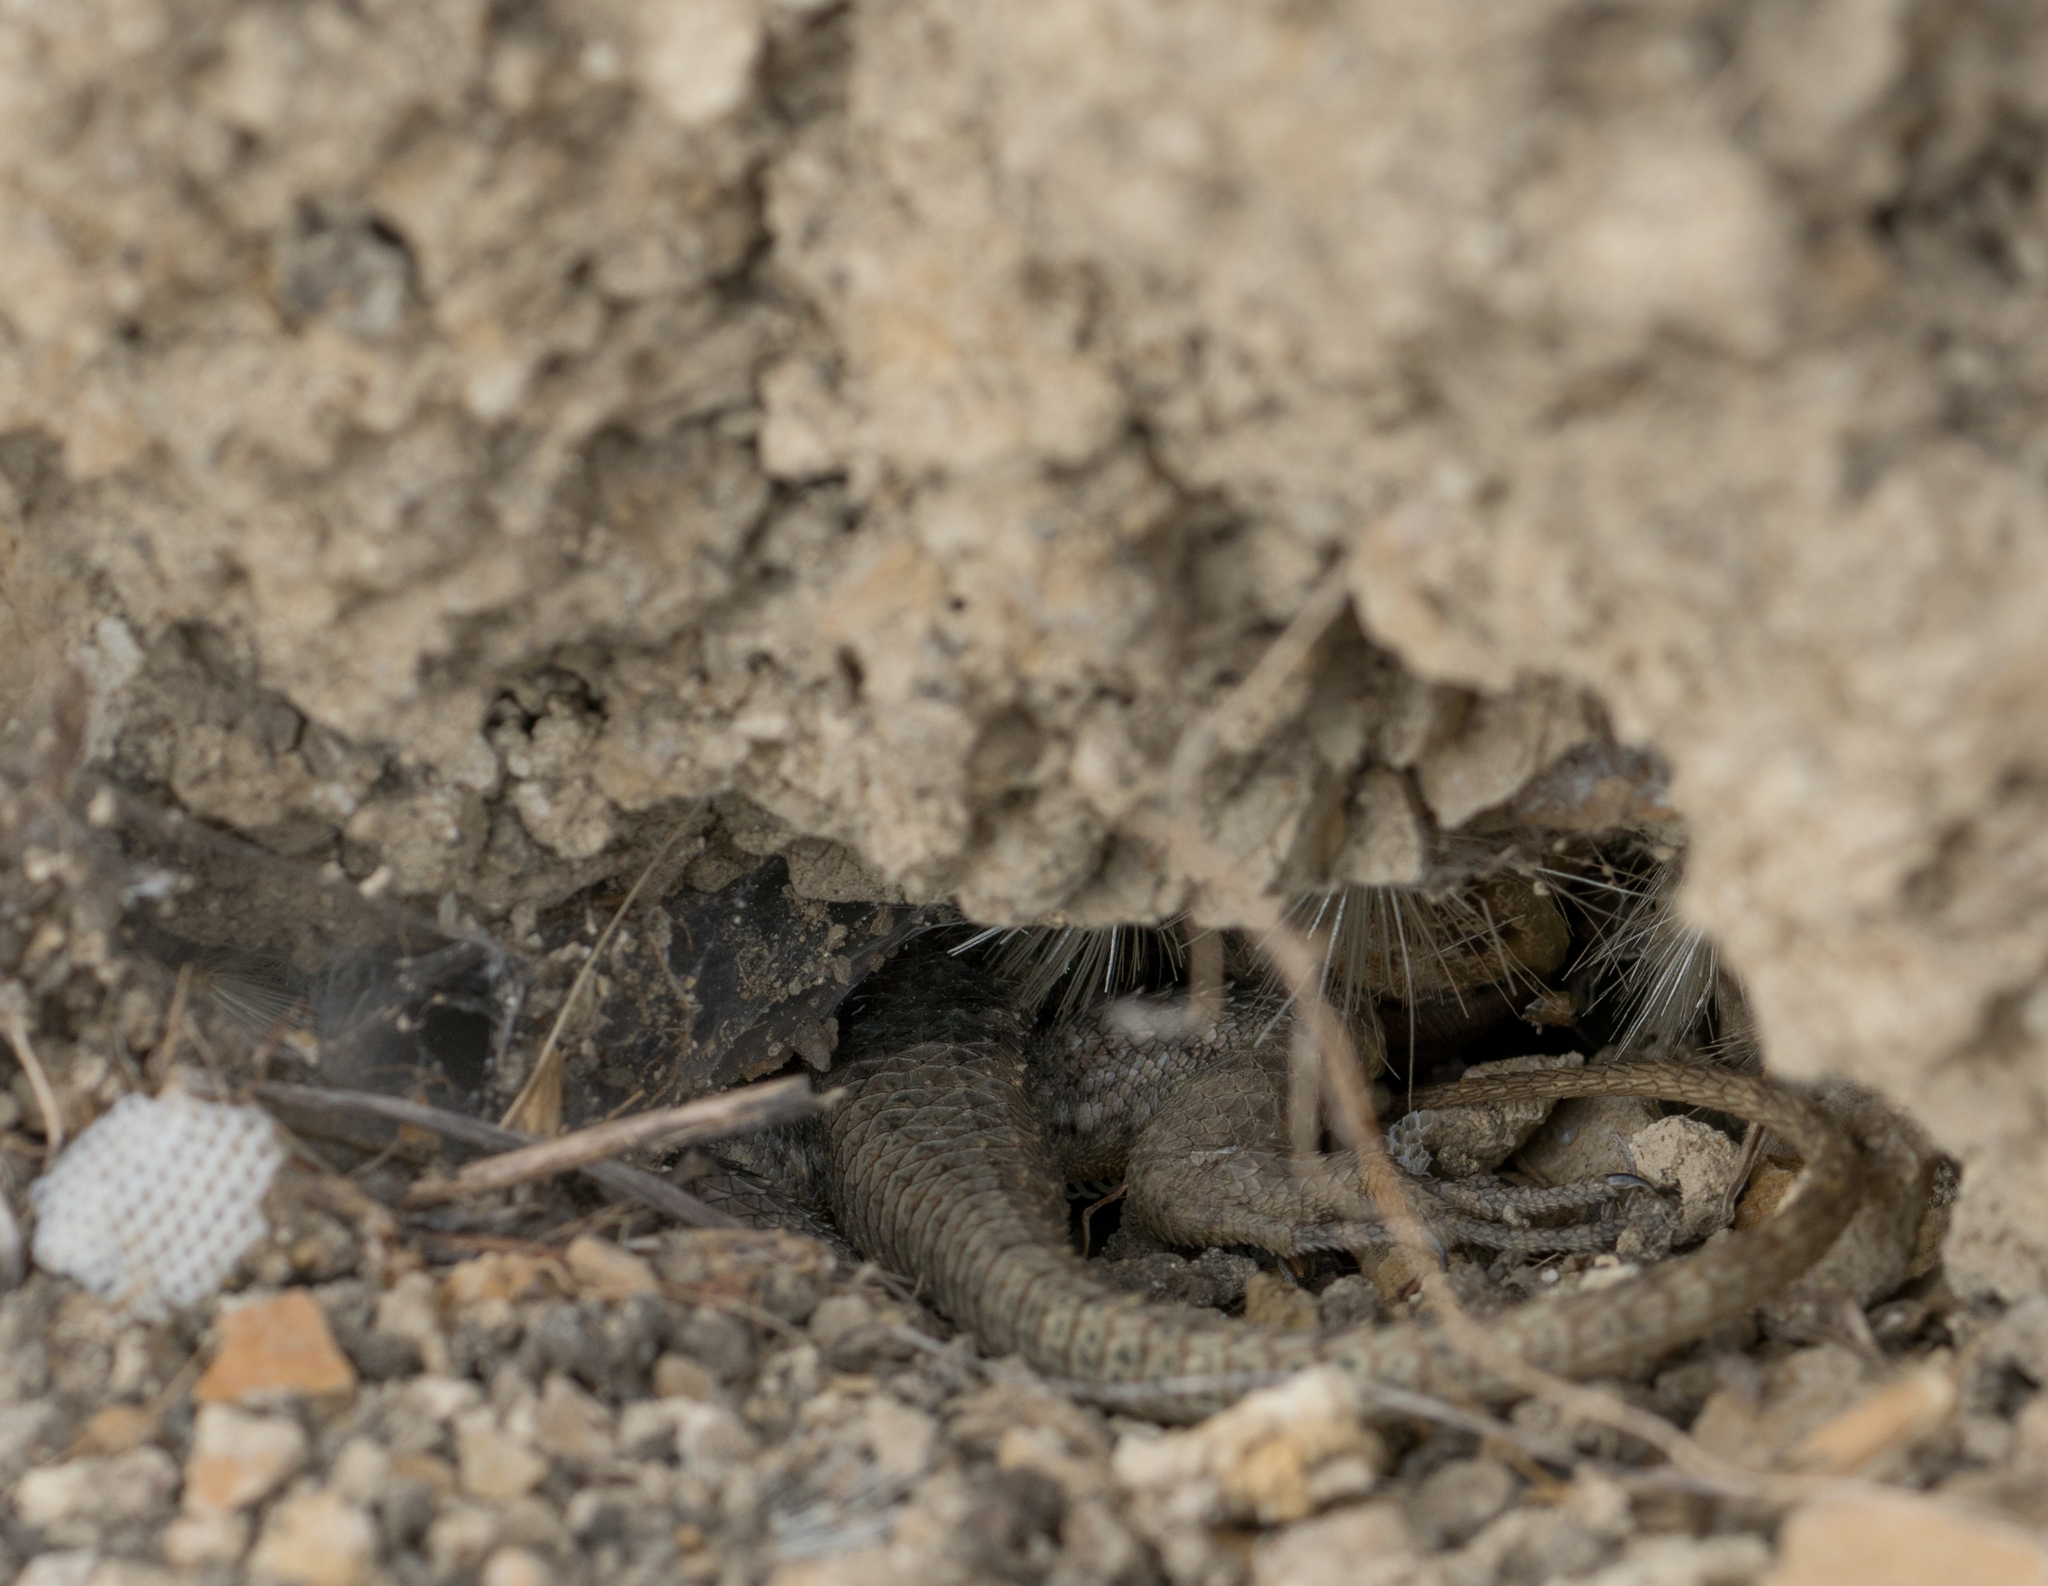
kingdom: Animalia
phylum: Chordata
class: Squamata
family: Phrynosomatidae
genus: Sceloporus
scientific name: Sceloporus occidentalis
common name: Western fence lizard
